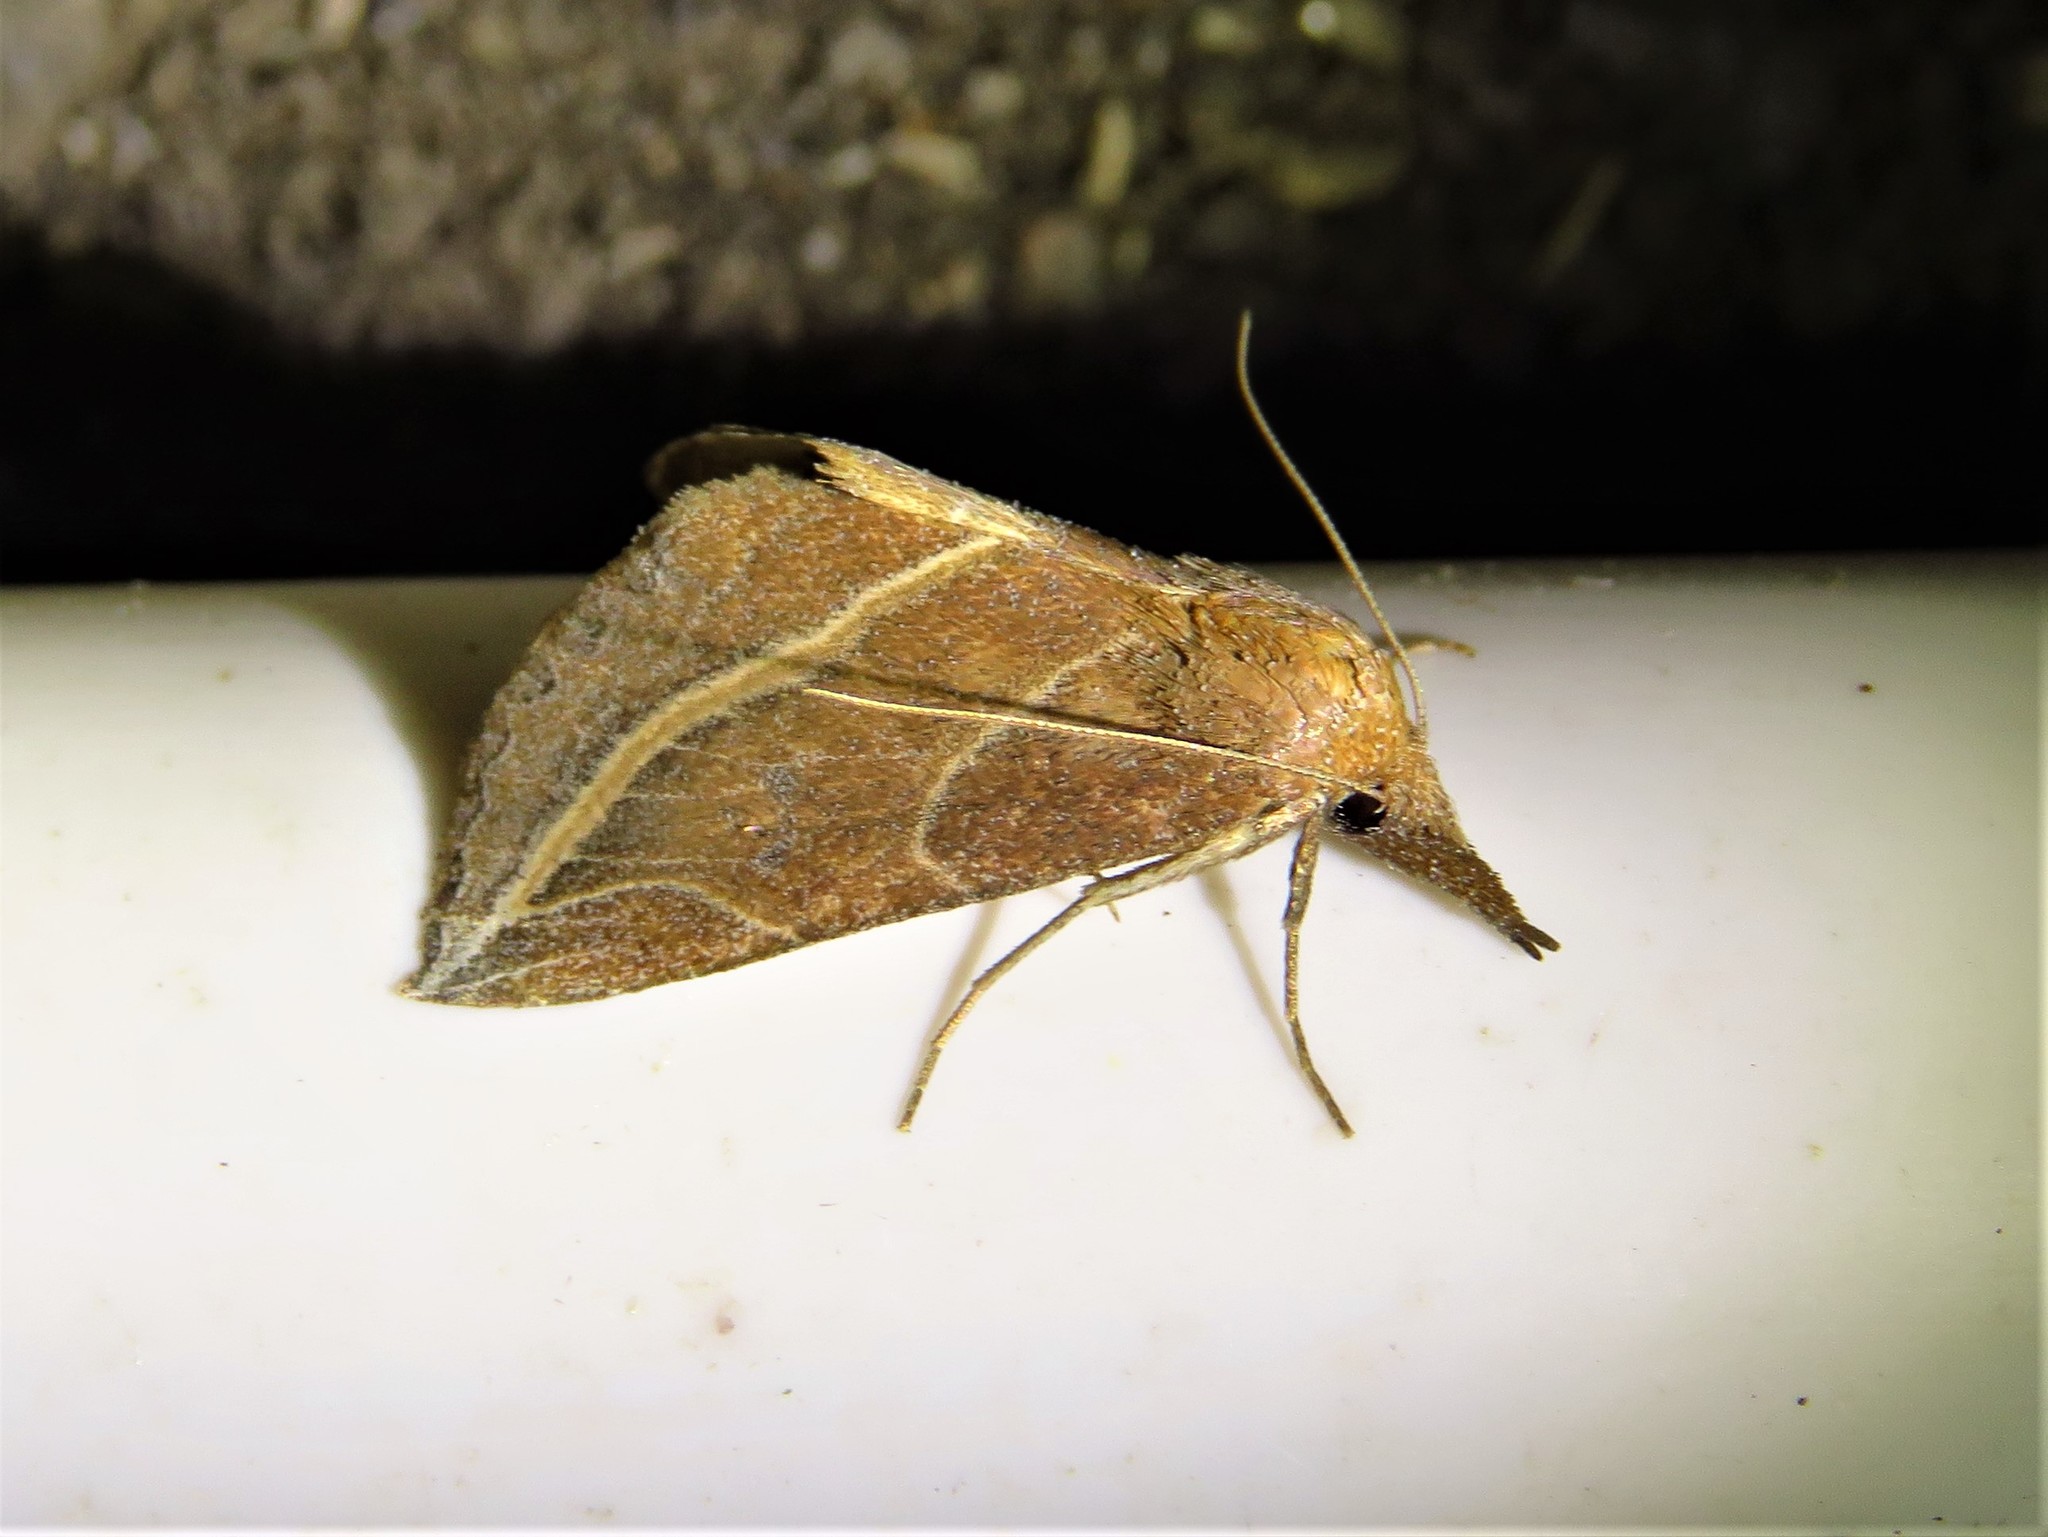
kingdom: Animalia
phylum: Arthropoda
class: Insecta
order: Lepidoptera
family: Erebidae
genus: Phyprosopus
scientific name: Phyprosopus callitrichoides
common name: Curved-lined owlet
